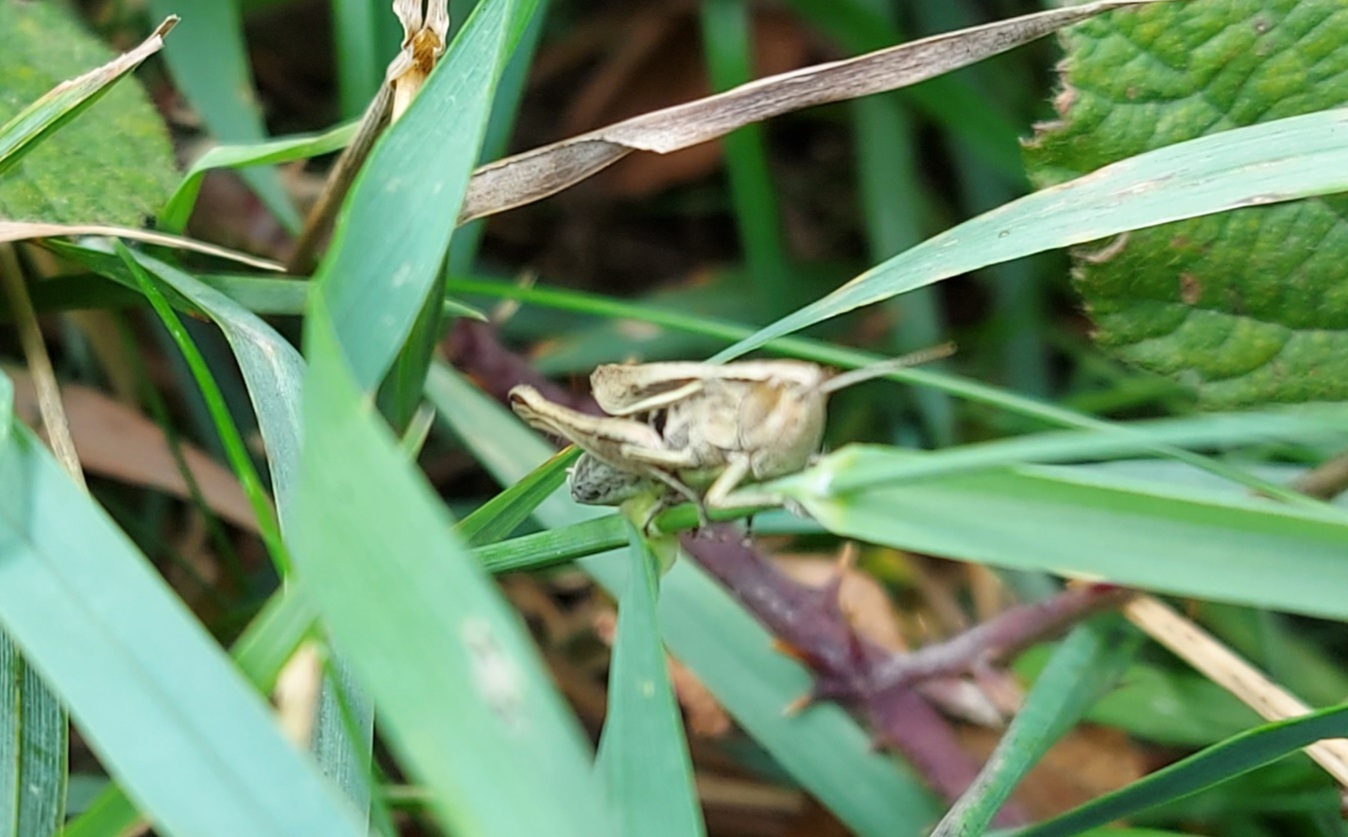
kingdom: Animalia
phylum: Arthropoda
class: Insecta
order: Orthoptera
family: Acrididae
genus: Chorthippus
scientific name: Chorthippus albomarginatus
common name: Lesser marsh grasshopper
